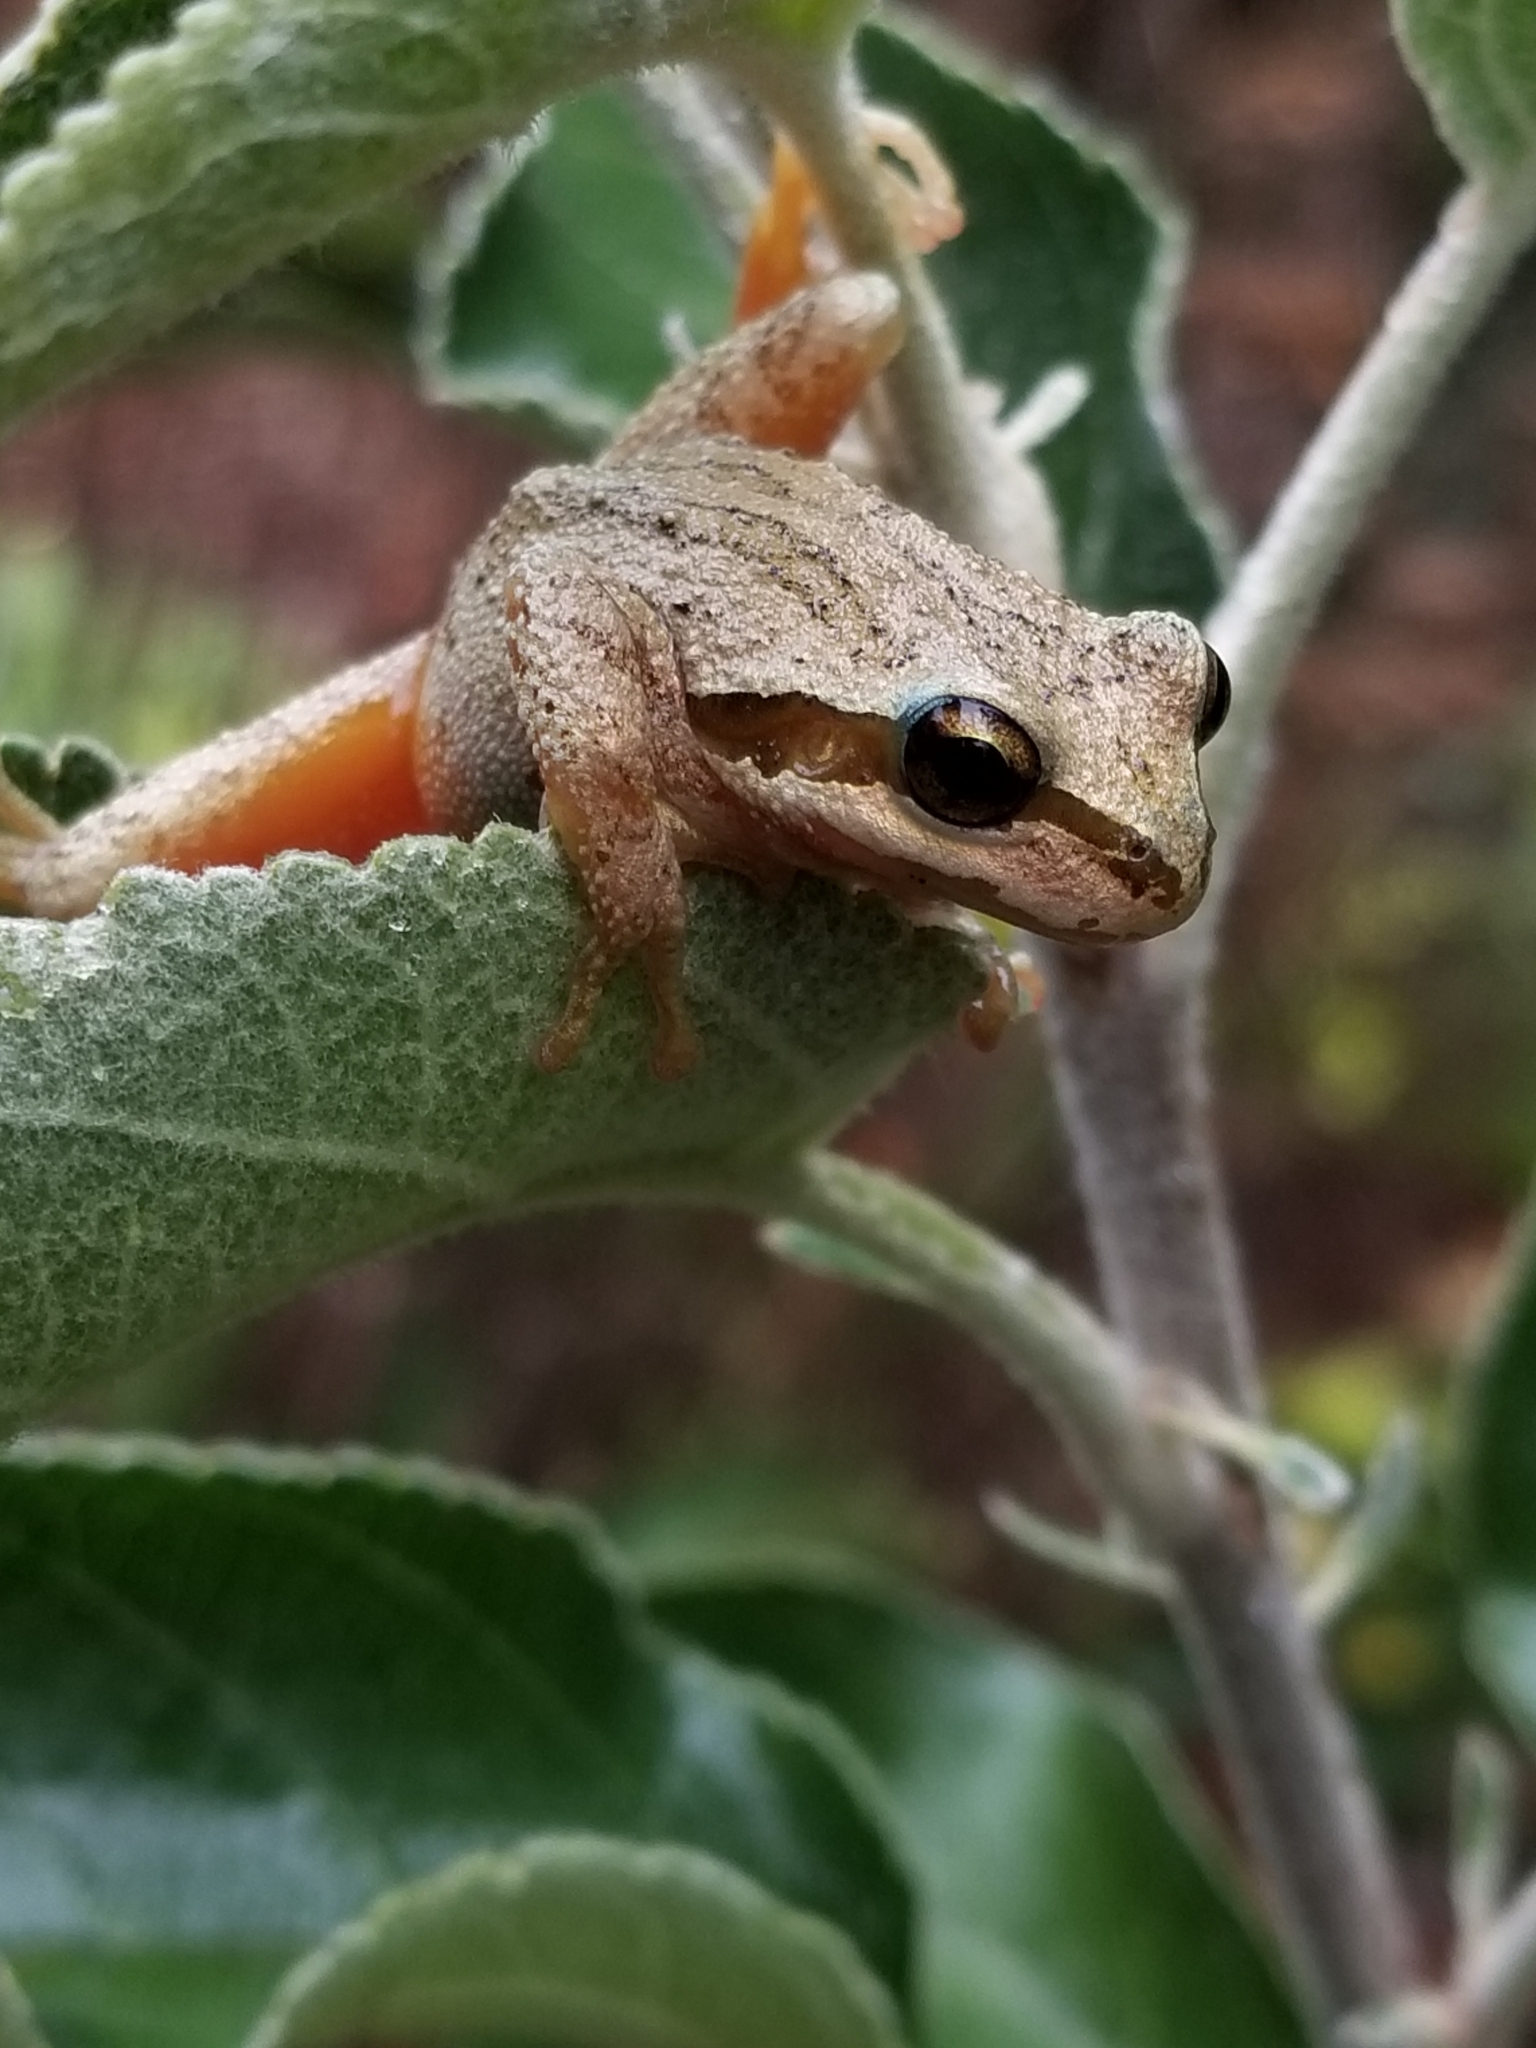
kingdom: Animalia
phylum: Chordata
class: Amphibia
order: Anura
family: Hylidae
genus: Pseudacris
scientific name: Pseudacris regilla
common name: Pacific chorus frog
